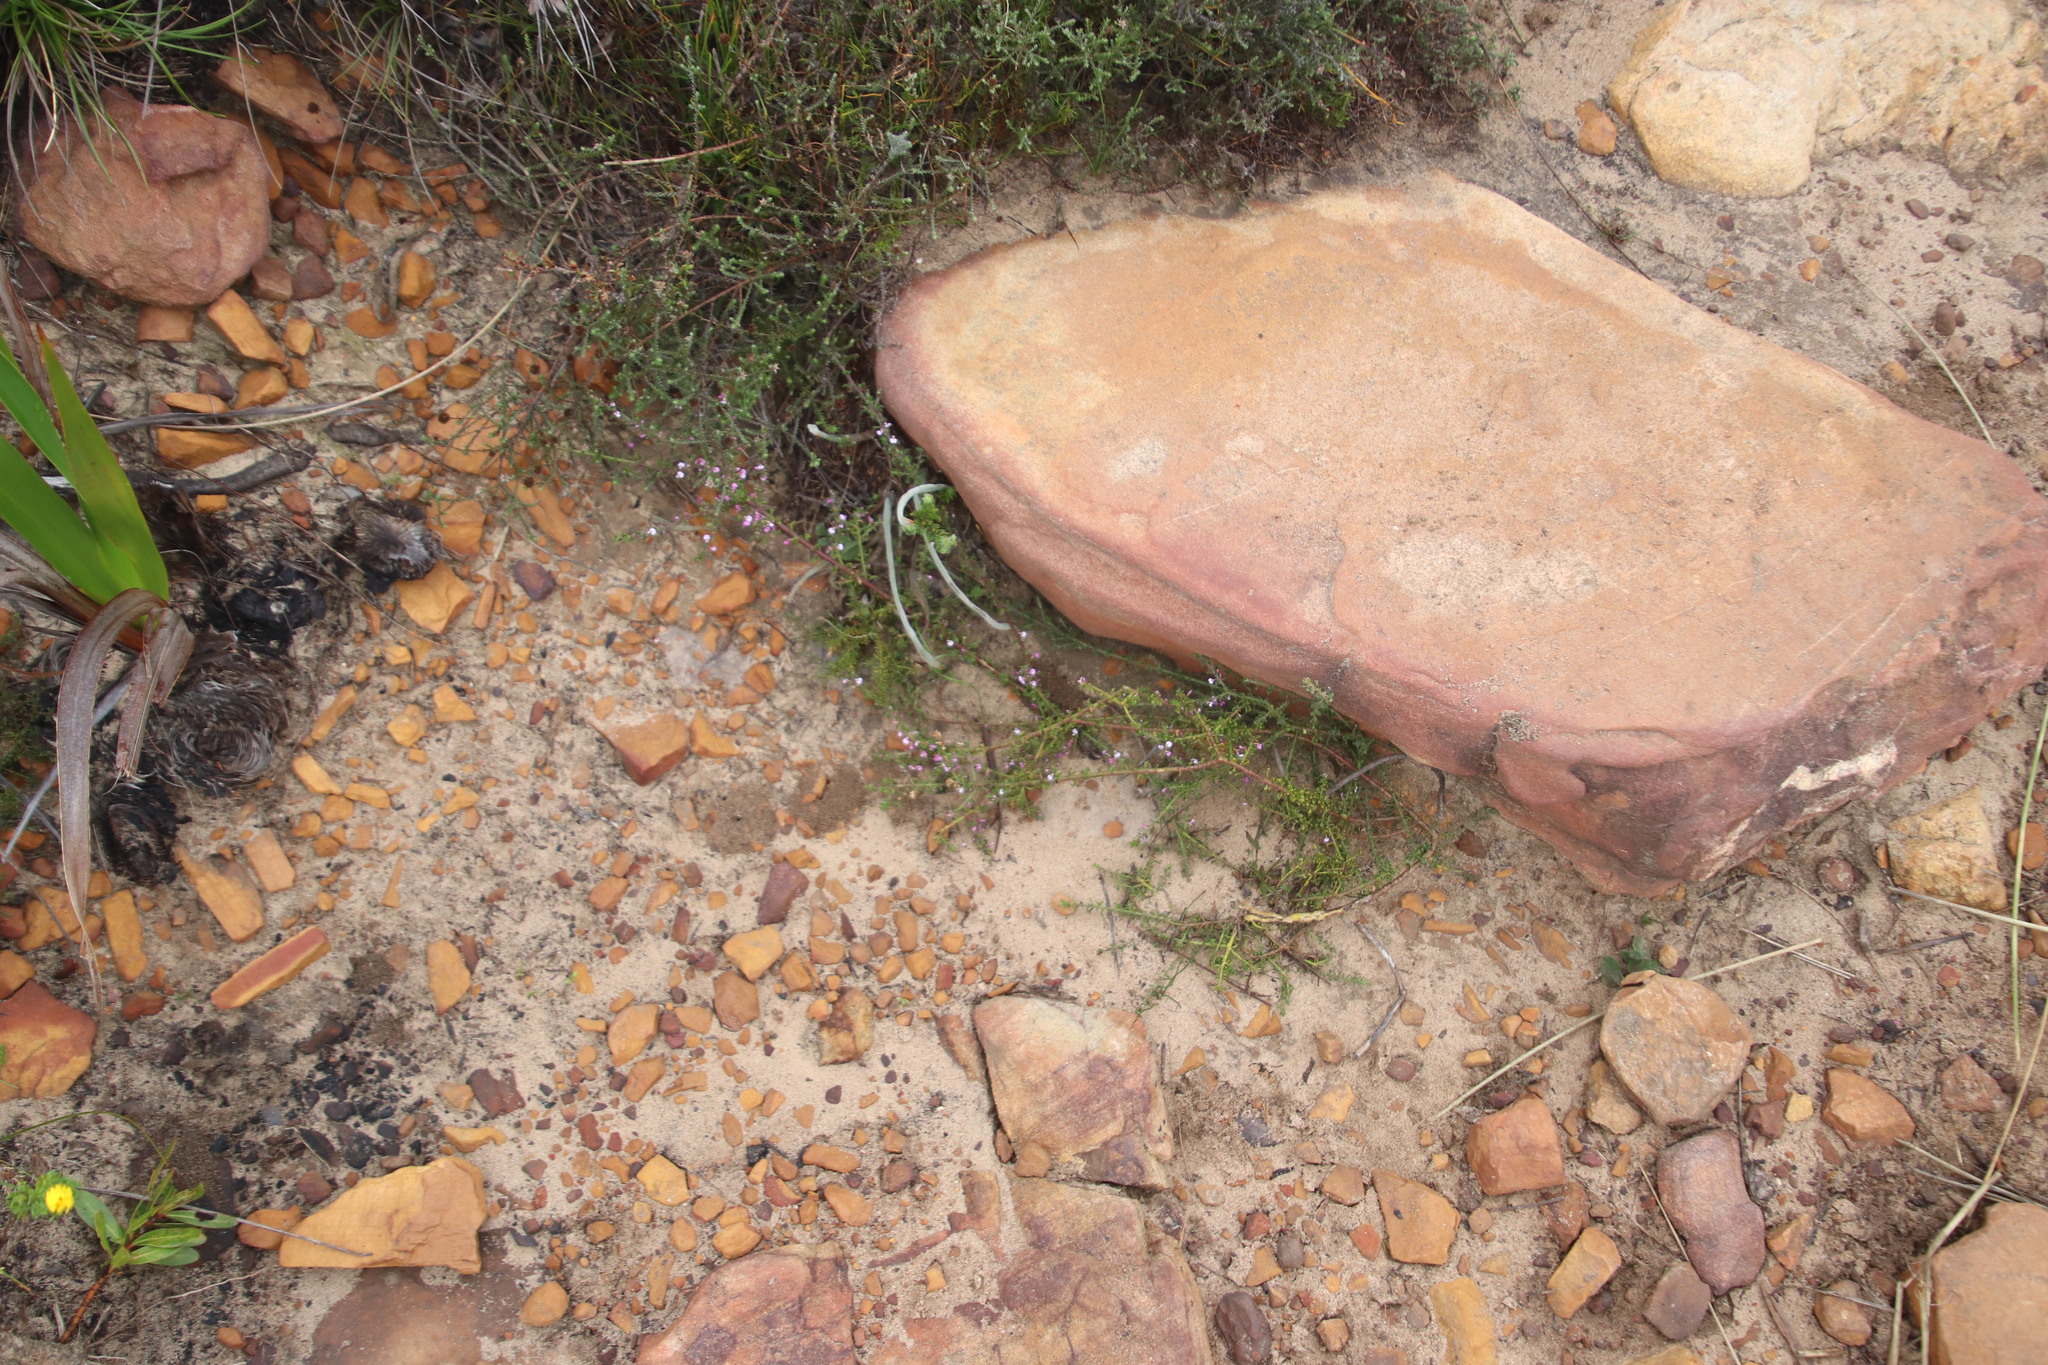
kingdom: Plantae
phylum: Tracheophyta
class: Magnoliopsida
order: Fabales
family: Polygalaceae
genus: Muraltia
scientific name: Muraltia orbicularis
